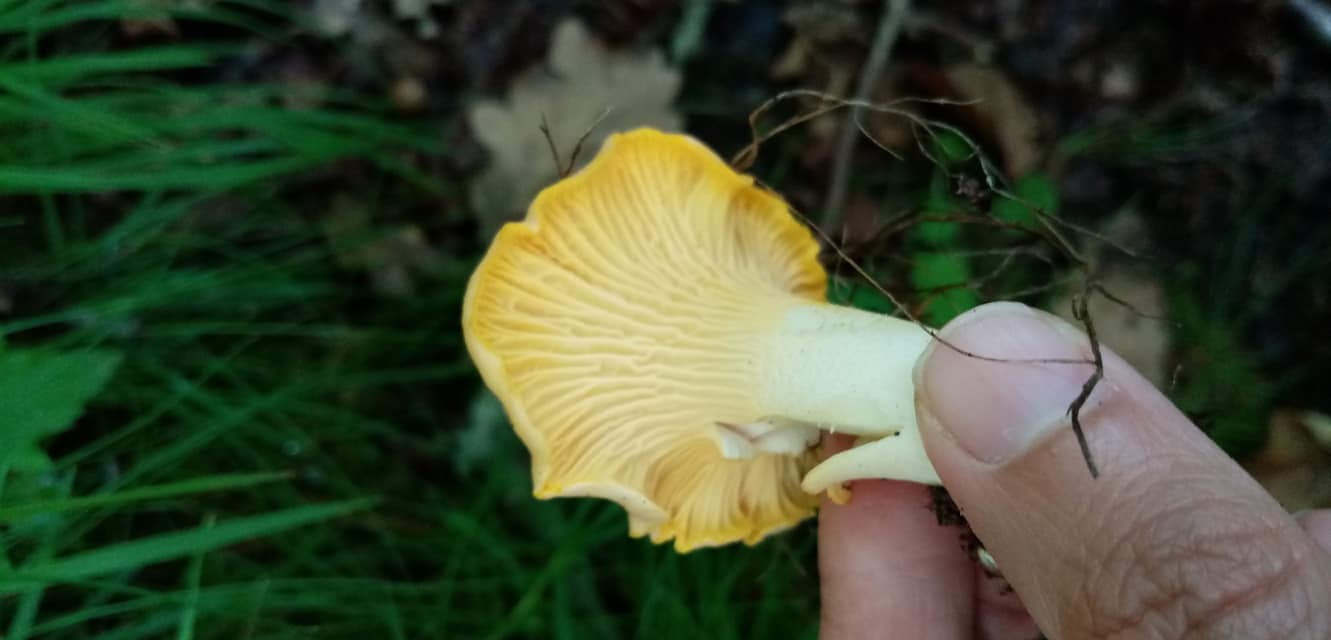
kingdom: Fungi
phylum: Basidiomycota
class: Agaricomycetes
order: Cantharellales
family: Hydnaceae
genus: Cantharellus
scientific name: Cantharellus pallens
